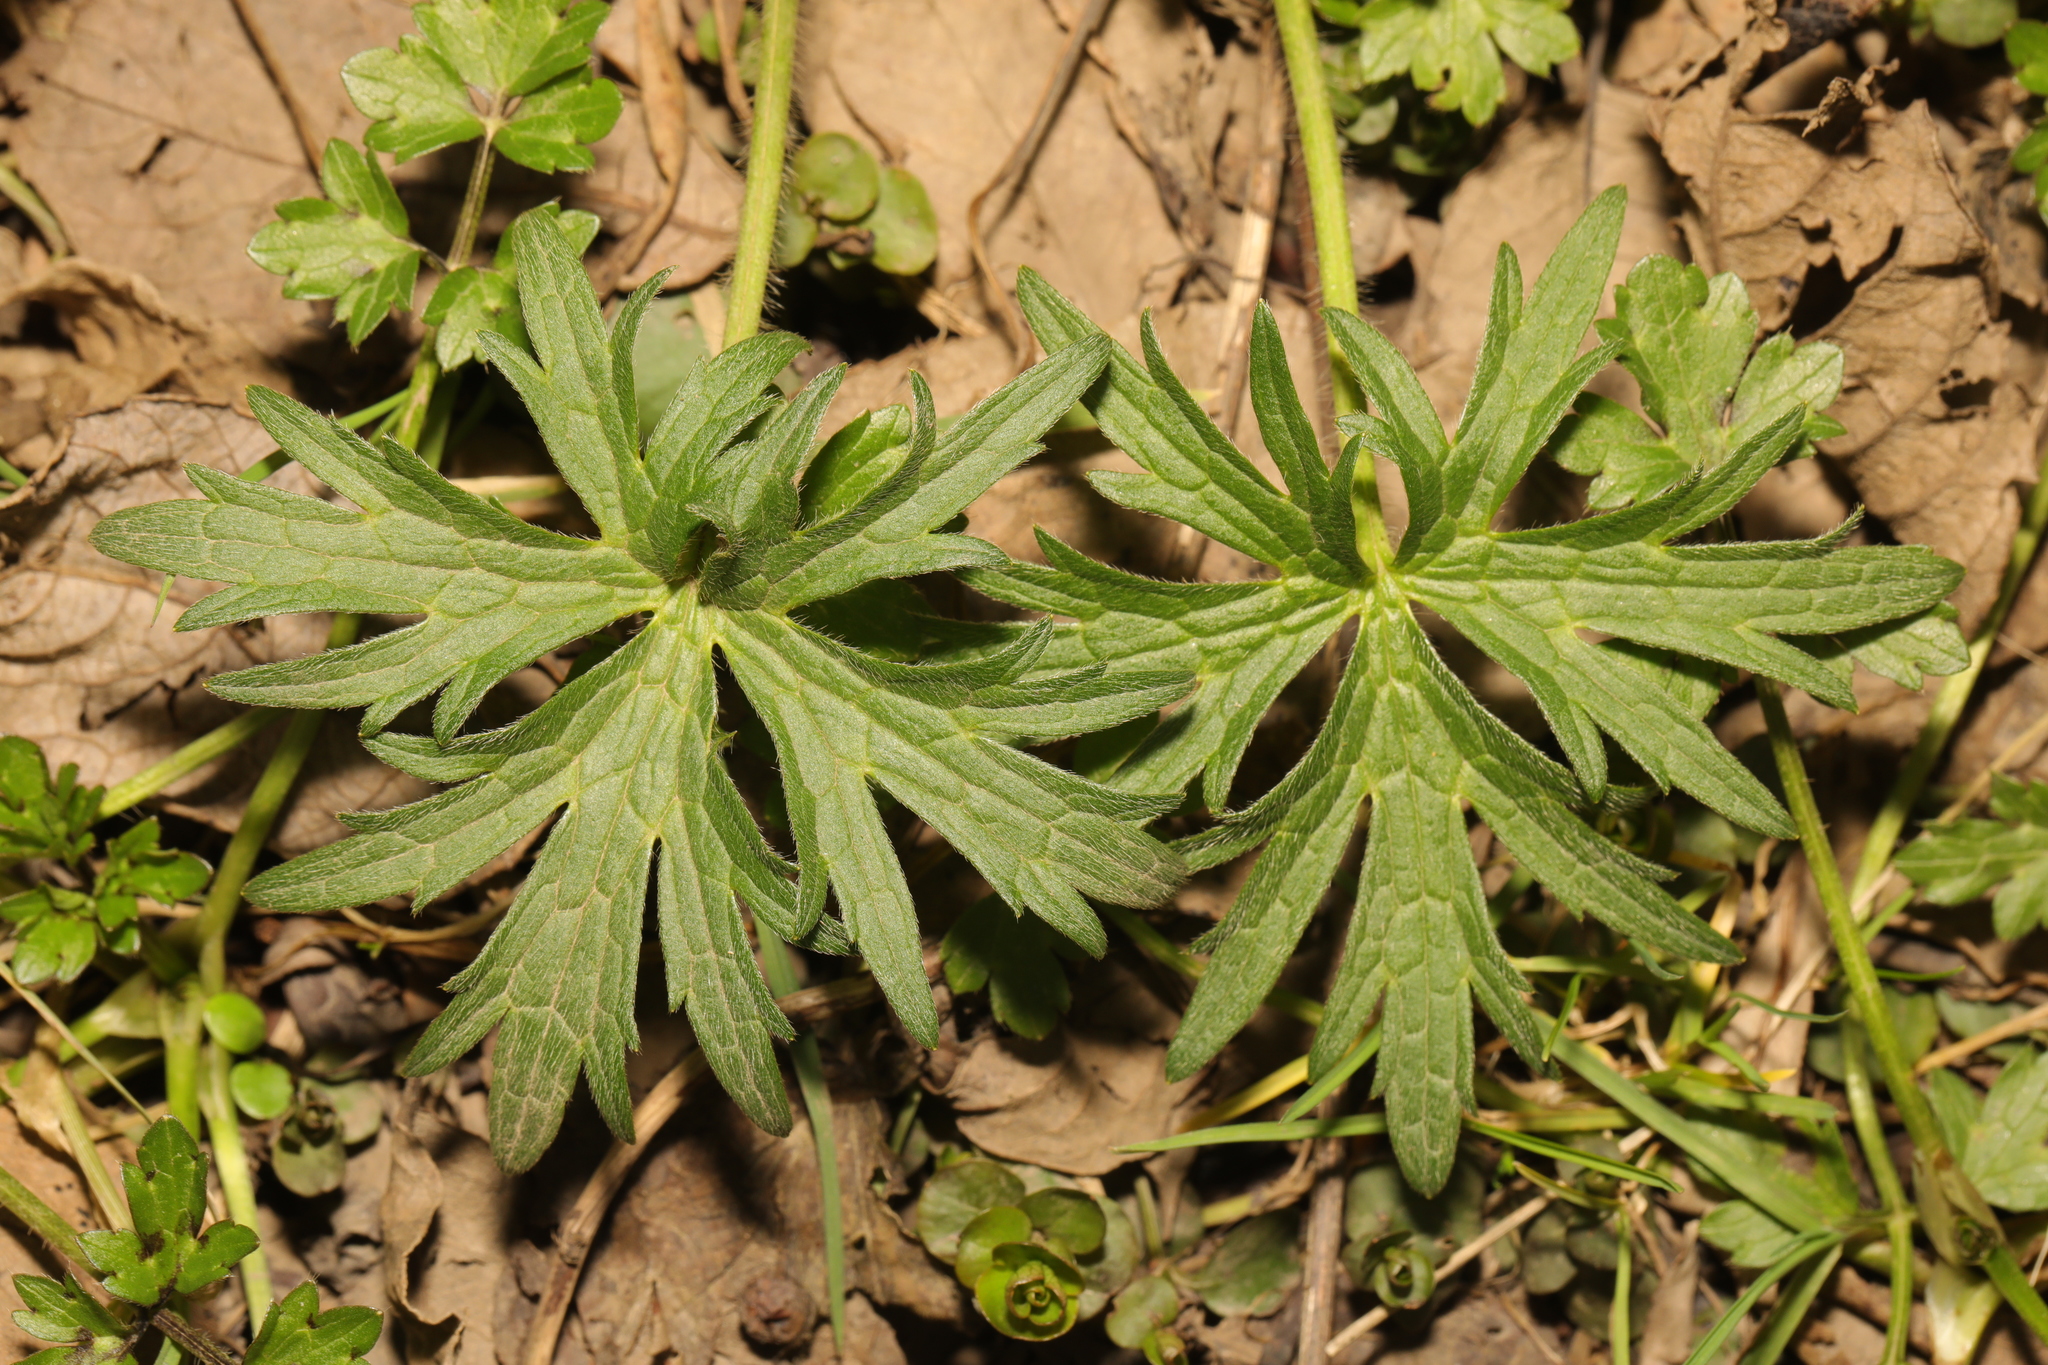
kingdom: Plantae
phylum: Tracheophyta
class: Magnoliopsida
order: Ranunculales
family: Ranunculaceae
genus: Ranunculus
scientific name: Ranunculus acris
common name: Meadow buttercup
